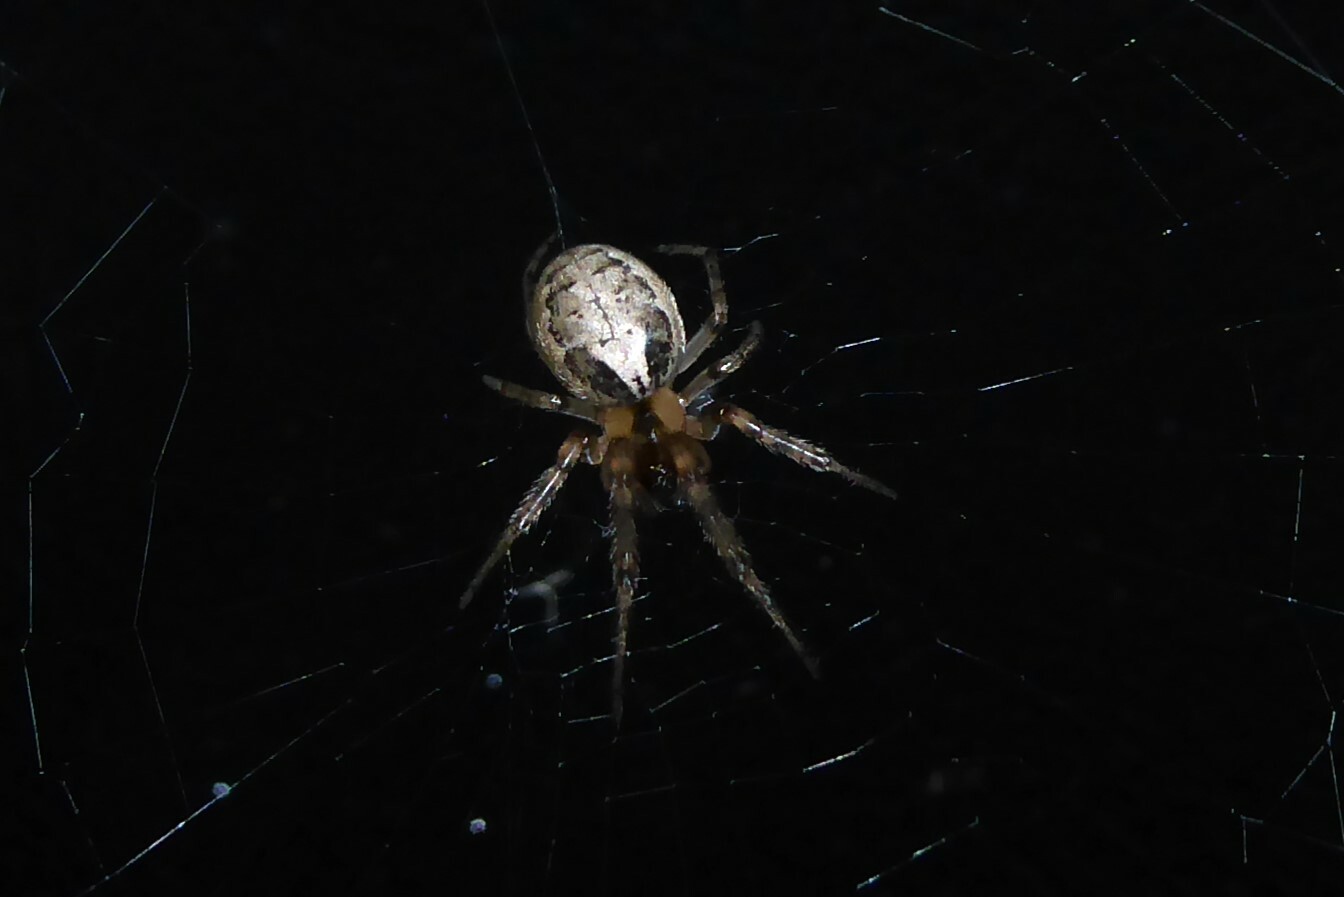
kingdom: Animalia
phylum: Arthropoda
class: Arachnida
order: Araneae
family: Araneidae
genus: Zygiella
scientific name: Zygiella x-notata
